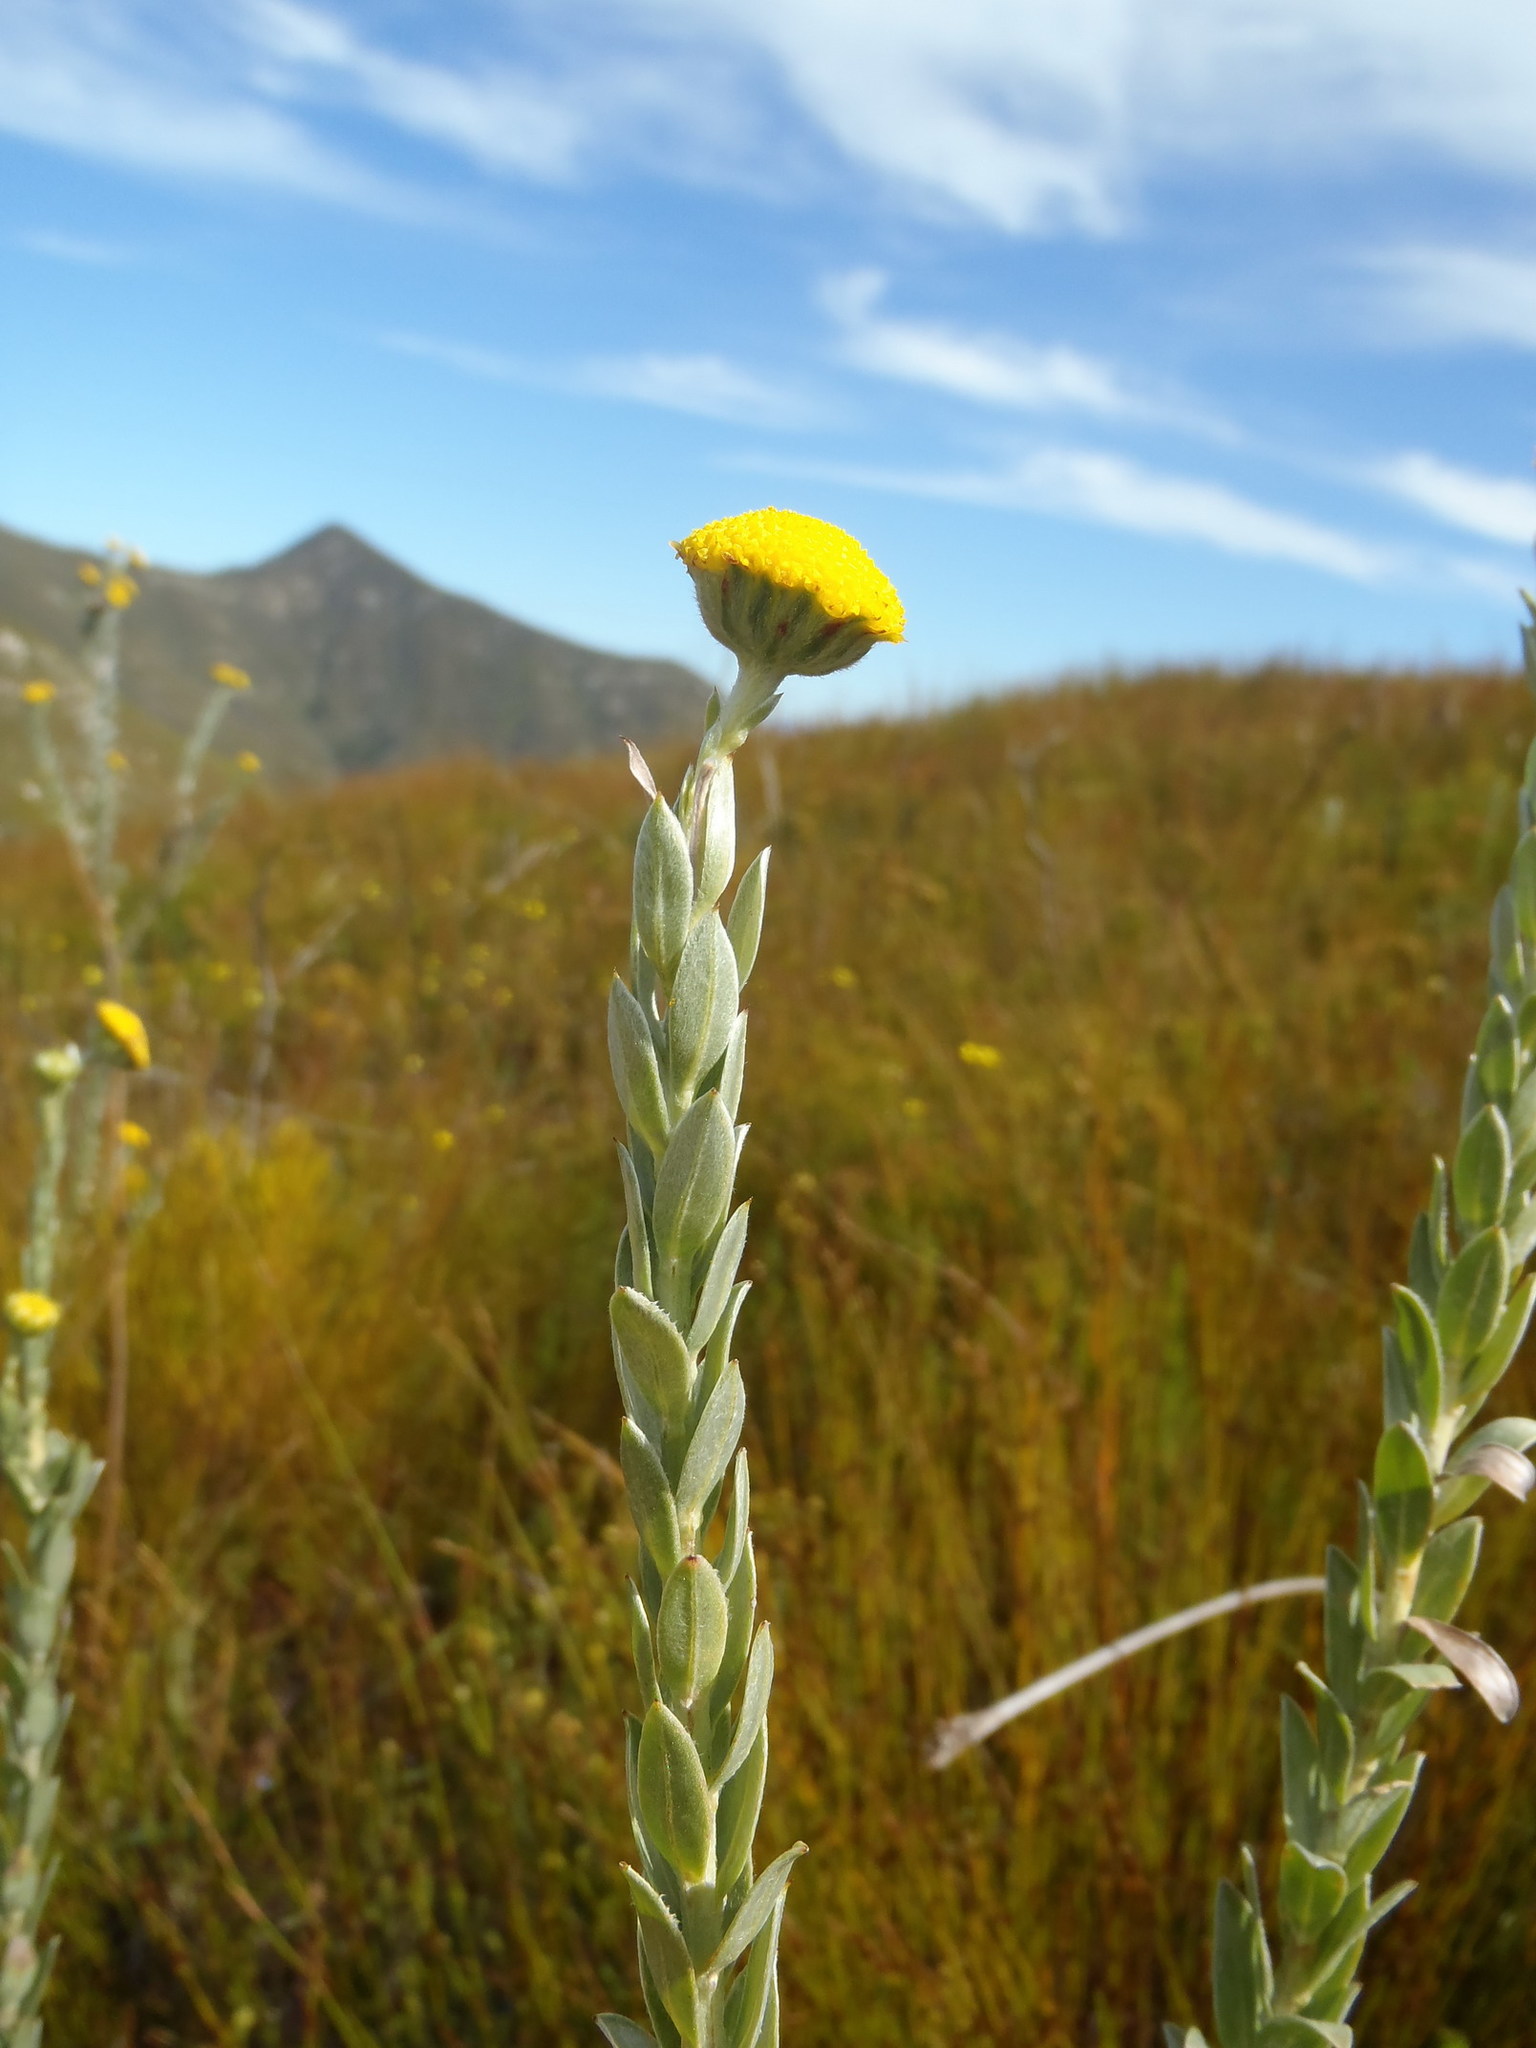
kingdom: Plantae
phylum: Tracheophyta
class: Magnoliopsida
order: Asterales
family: Asteraceae
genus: Schistostephium
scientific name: Schistostephium umbellatum
